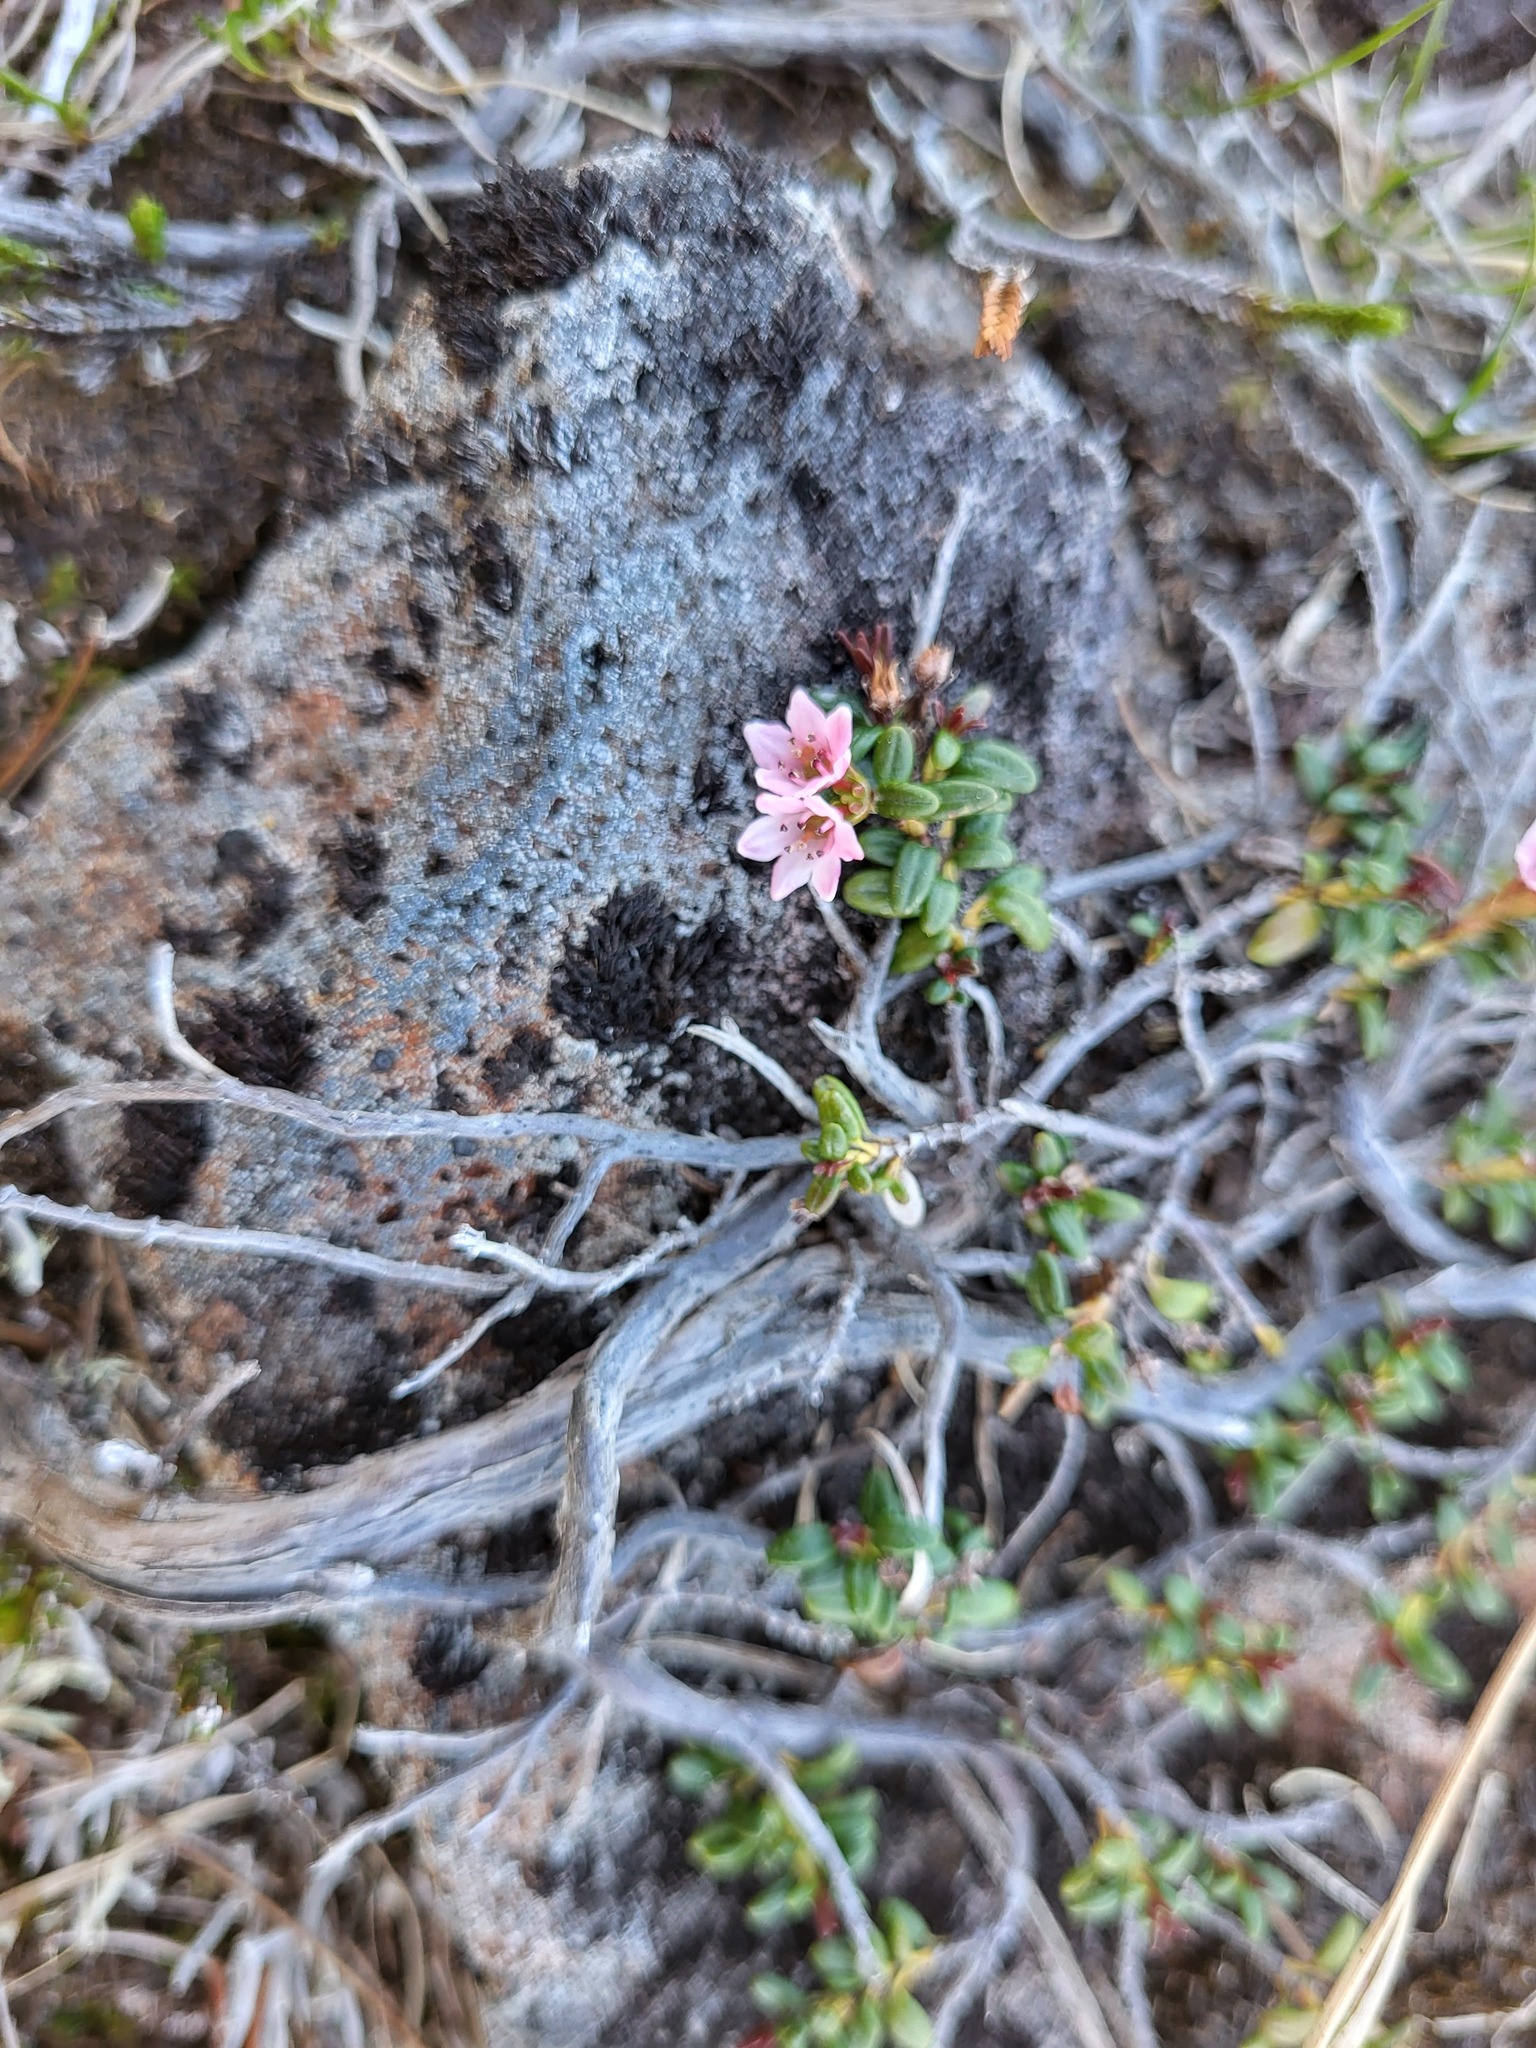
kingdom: Plantae
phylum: Tracheophyta
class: Magnoliopsida
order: Ericales
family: Ericaceae
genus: Kalmia
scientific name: Kalmia procumbens
